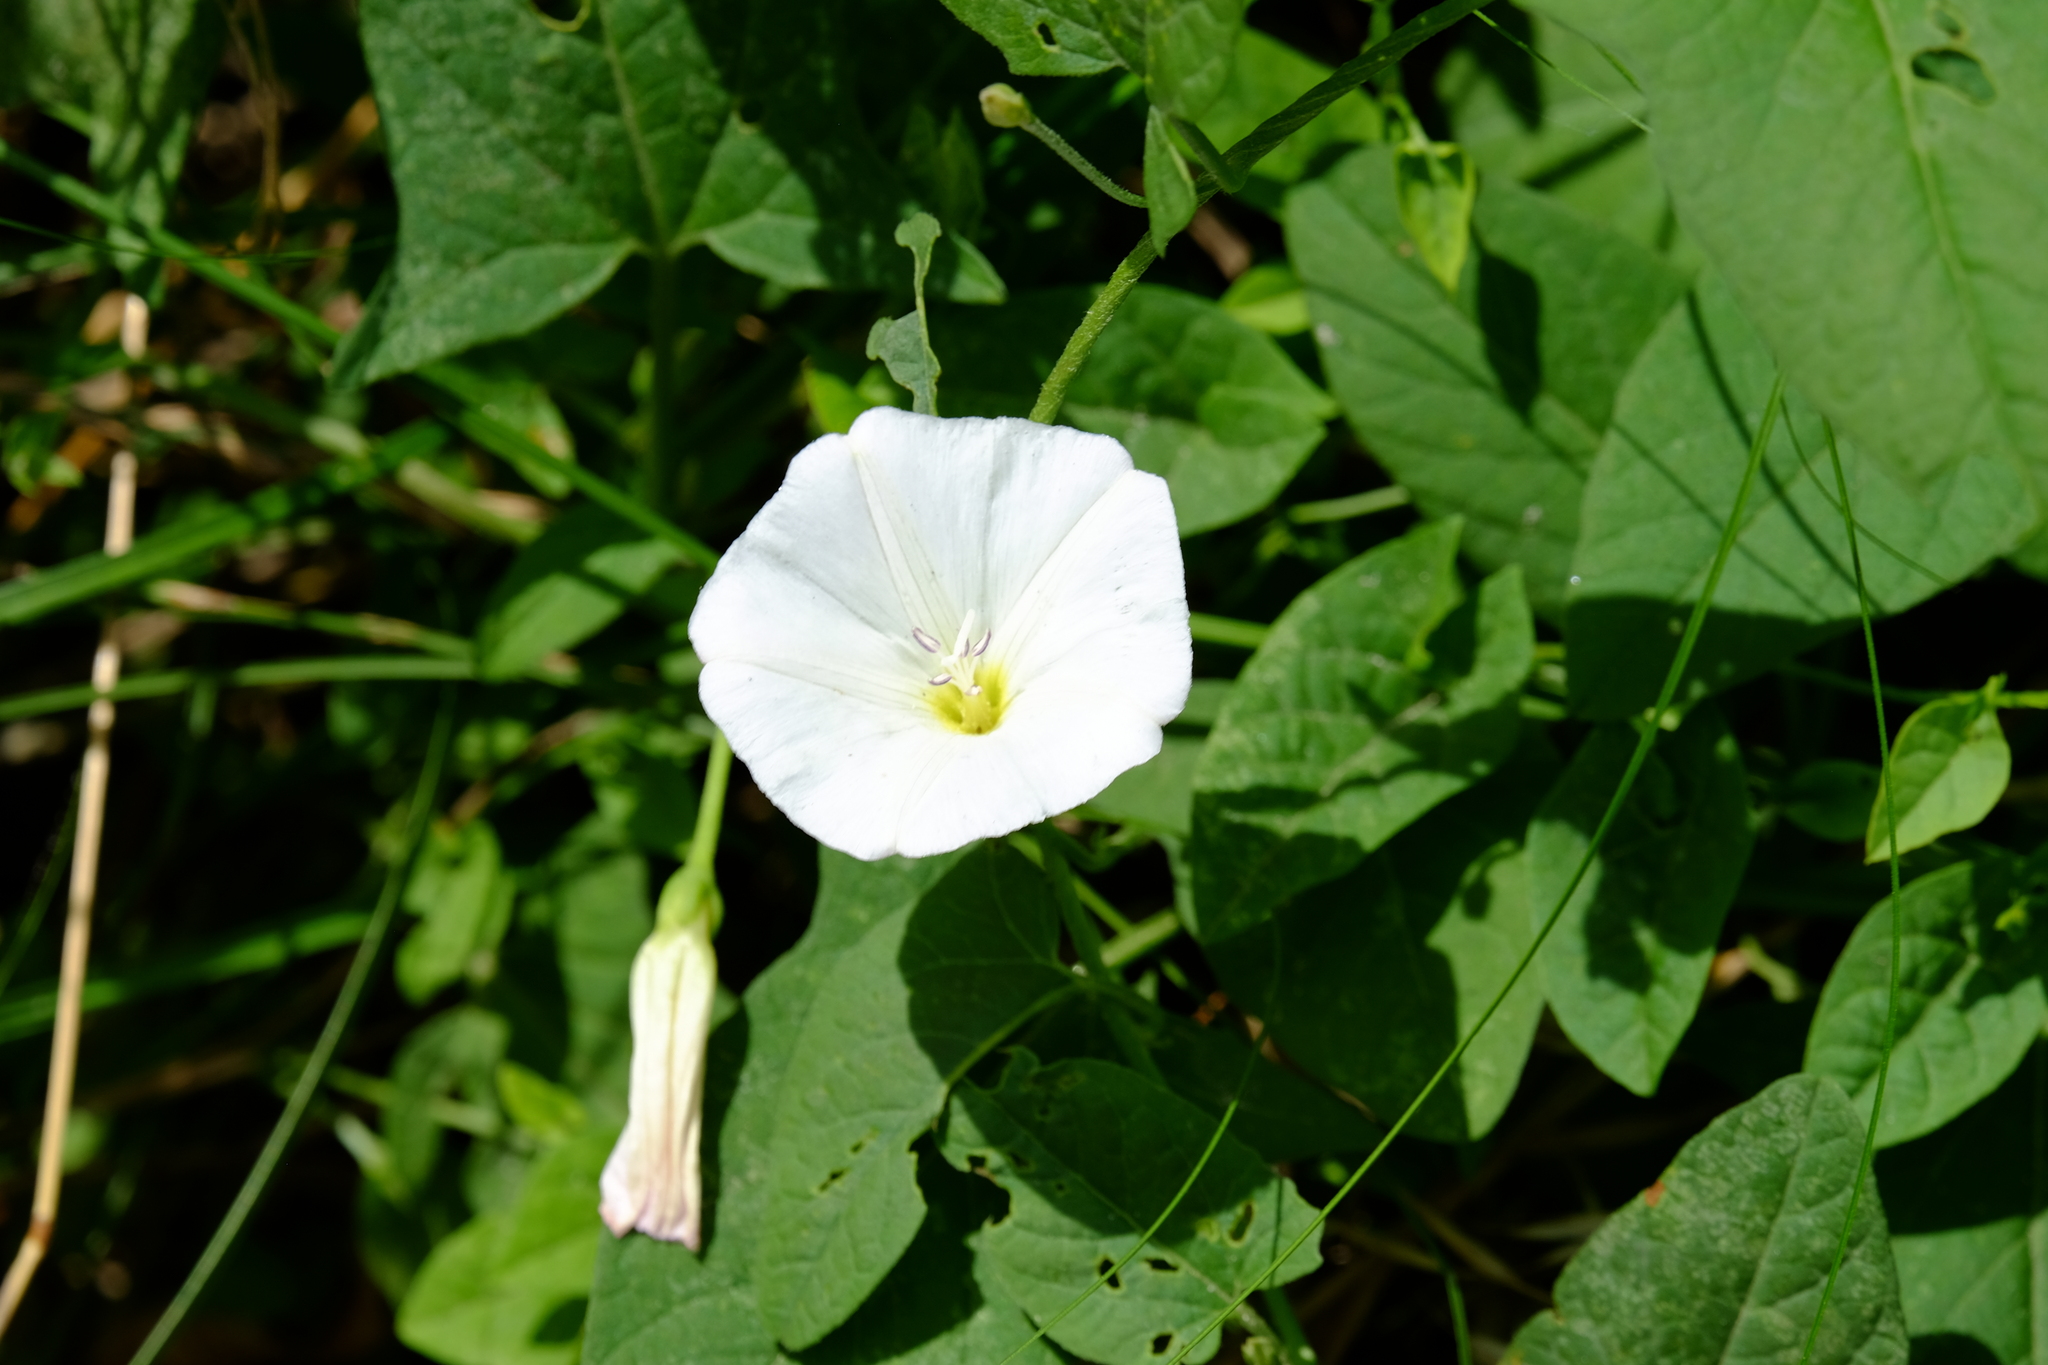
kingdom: Plantae
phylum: Tracheophyta
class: Magnoliopsida
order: Solanales
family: Convolvulaceae
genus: Convolvulus
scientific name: Convolvulus arvensis
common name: Field bindweed
